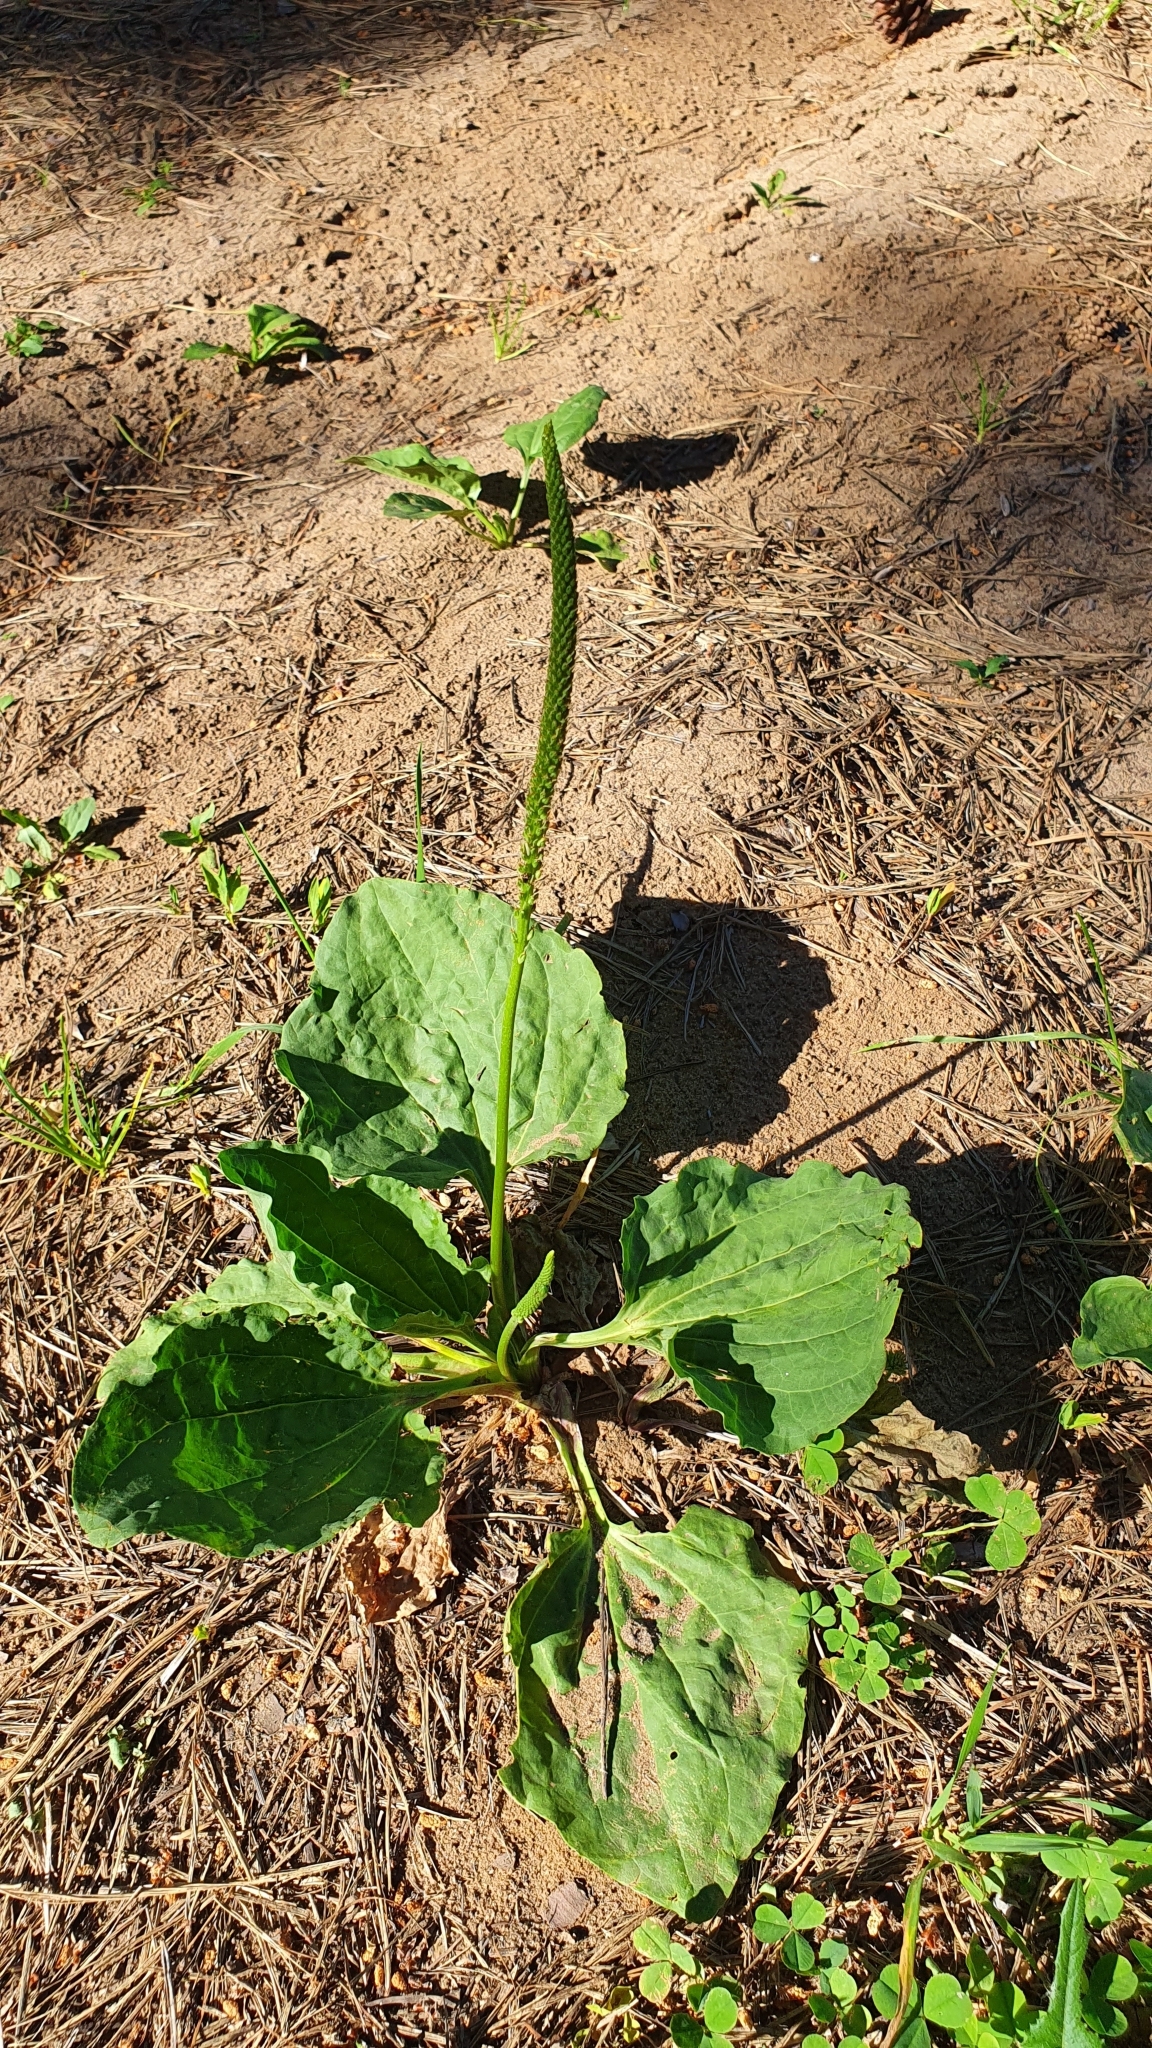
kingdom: Plantae
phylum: Tracheophyta
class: Magnoliopsida
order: Lamiales
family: Plantaginaceae
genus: Plantago
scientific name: Plantago major
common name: Common plantain
